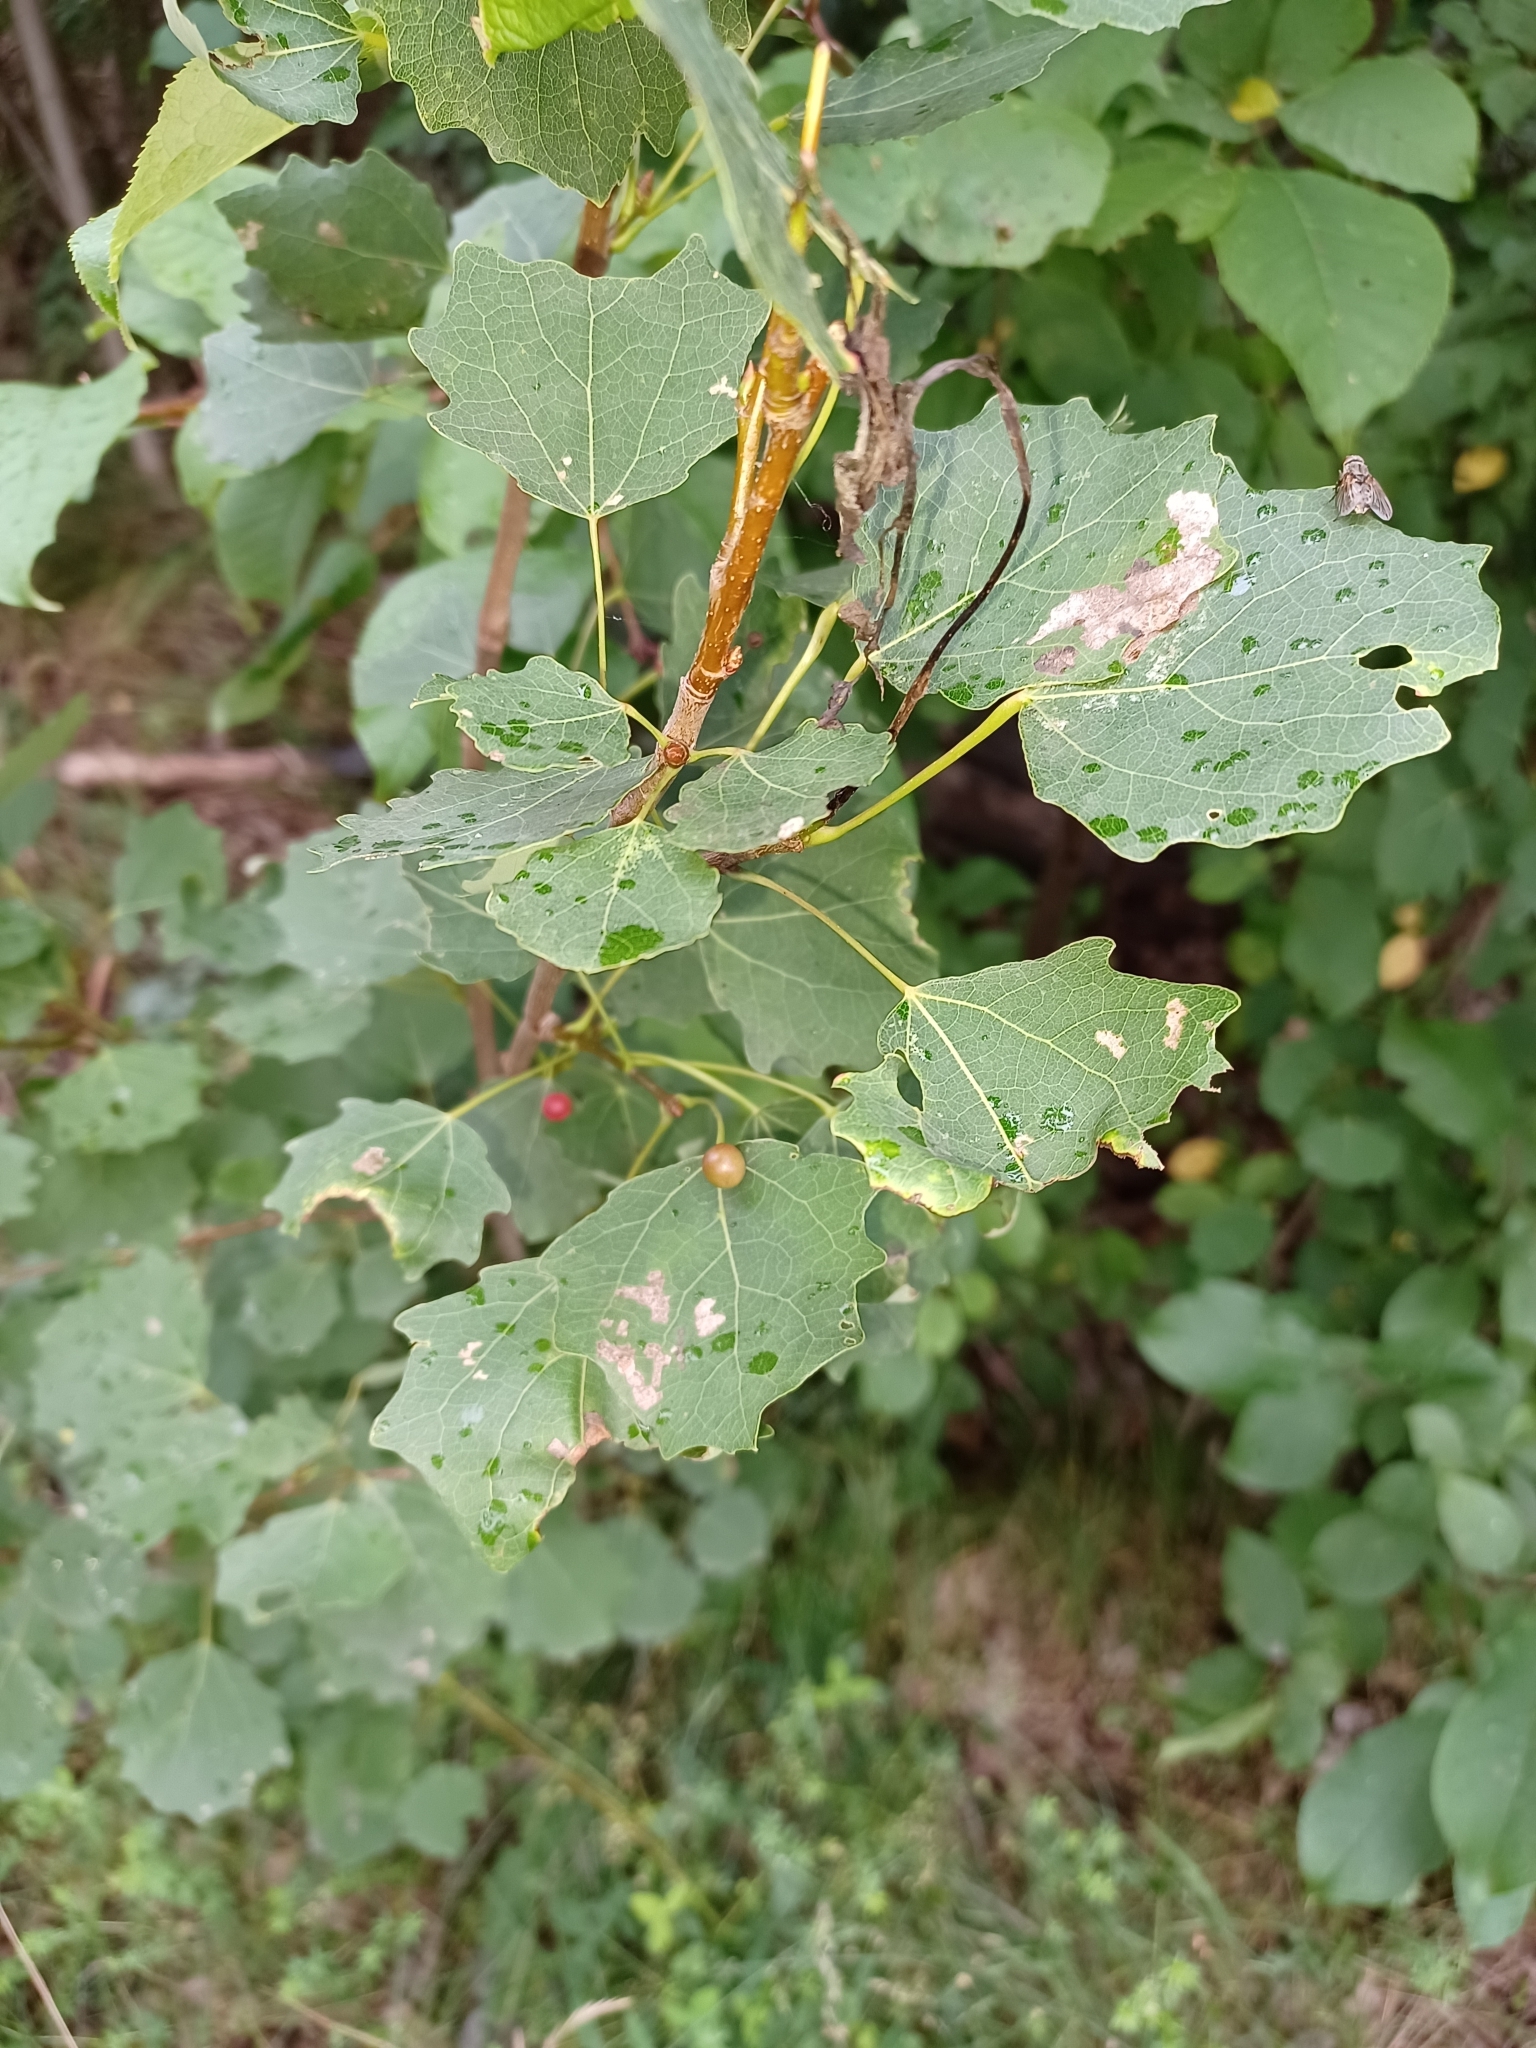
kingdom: Plantae
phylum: Tracheophyta
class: Magnoliopsida
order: Malpighiales
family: Salicaceae
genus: Populus
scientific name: Populus tremula
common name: European aspen
